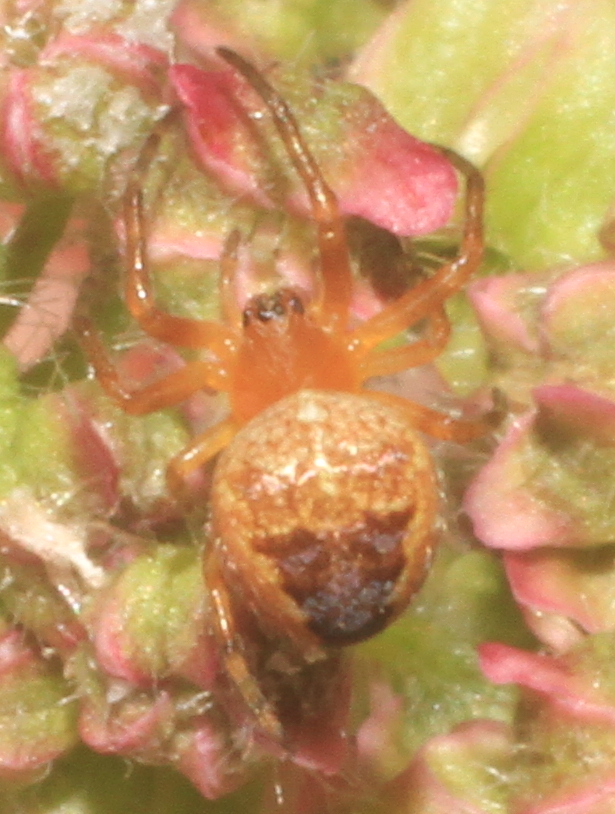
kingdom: Animalia
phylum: Arthropoda
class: Arachnida
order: Araneae
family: Araneidae
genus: Araneus
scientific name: Araneus diadematus
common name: Cross orbweaver
